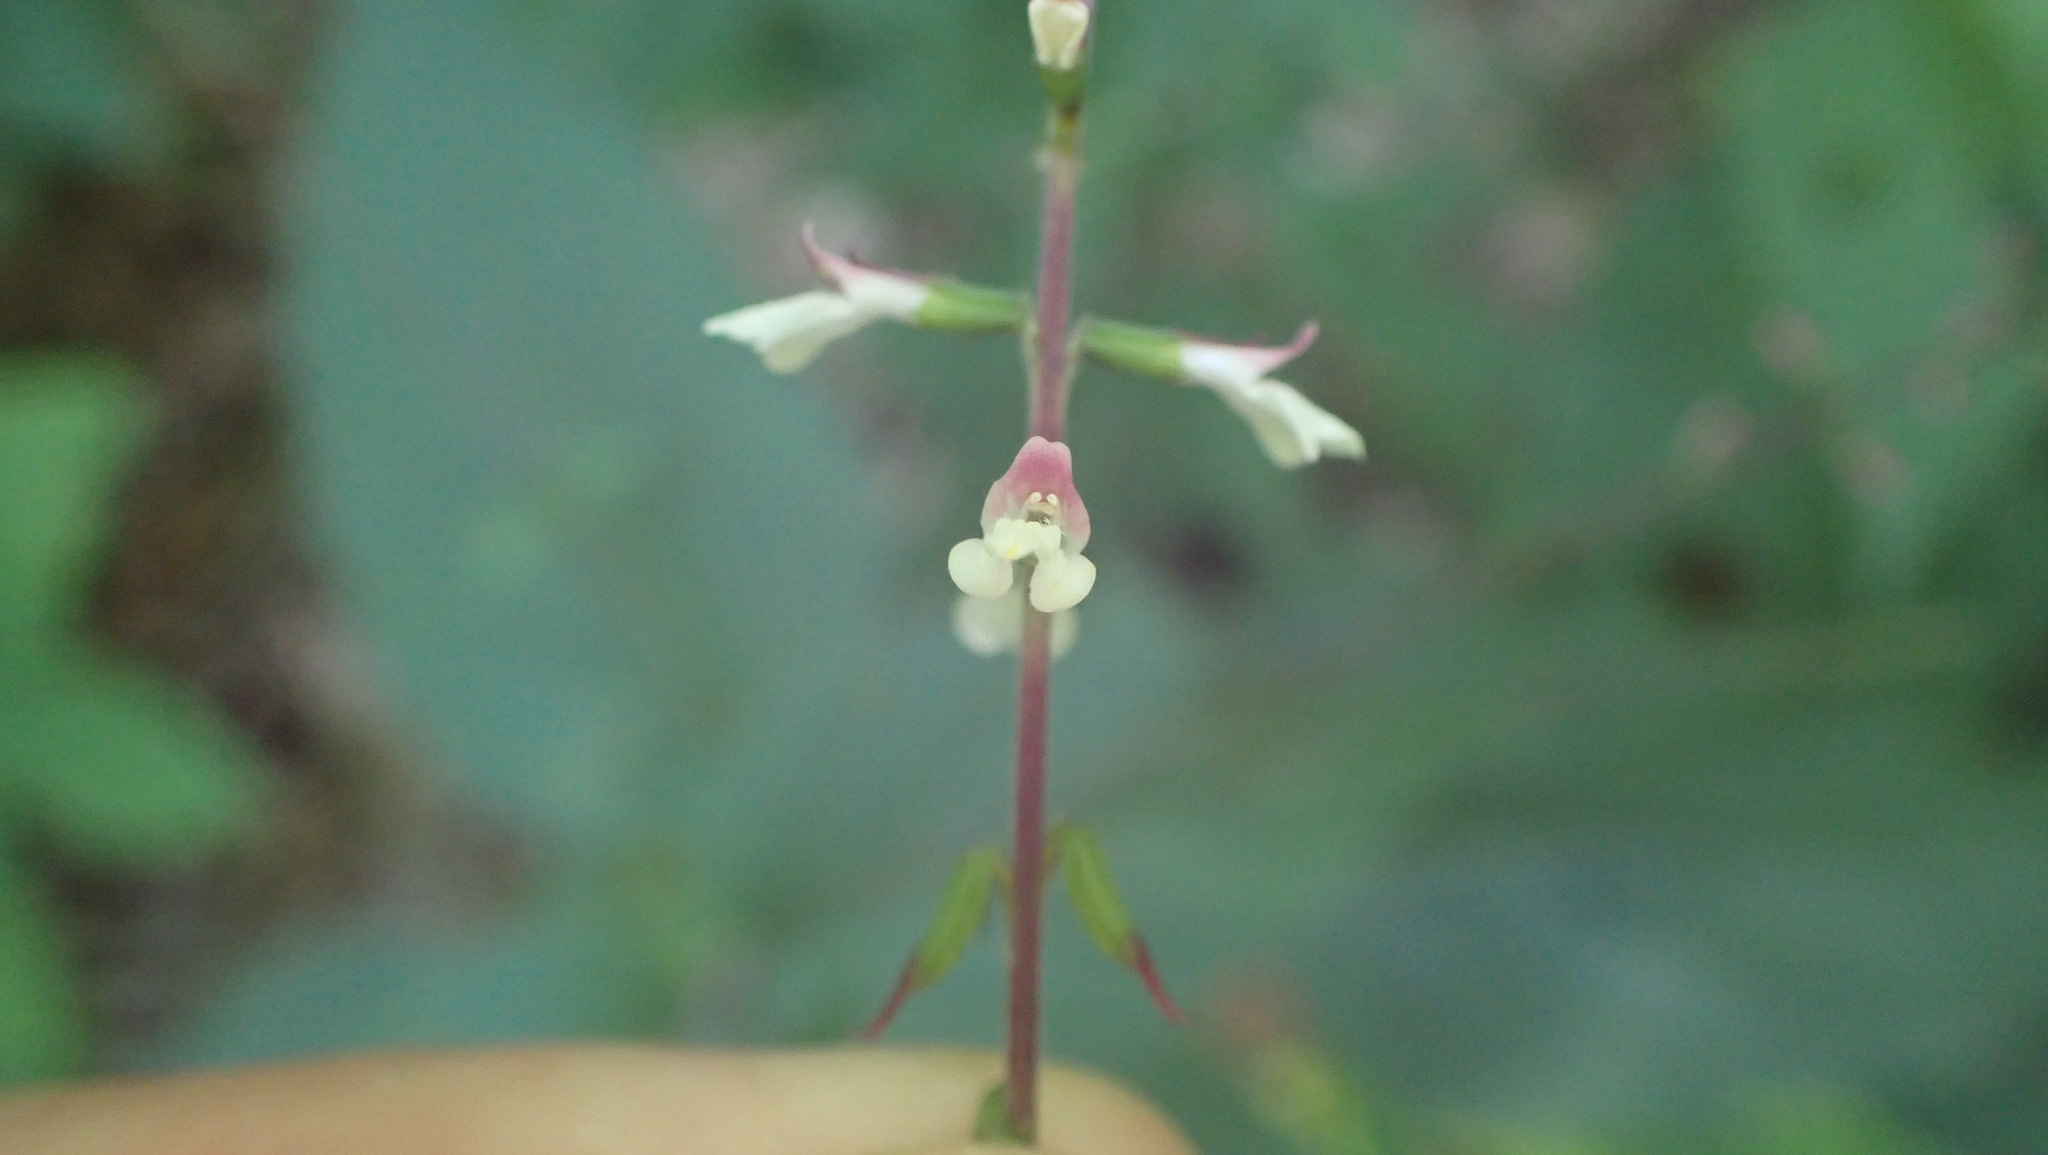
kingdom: Plantae
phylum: Tracheophyta
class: Magnoliopsida
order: Lamiales
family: Phrymaceae
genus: Phryma
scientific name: Phryma leptostachya
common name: American lopseed
